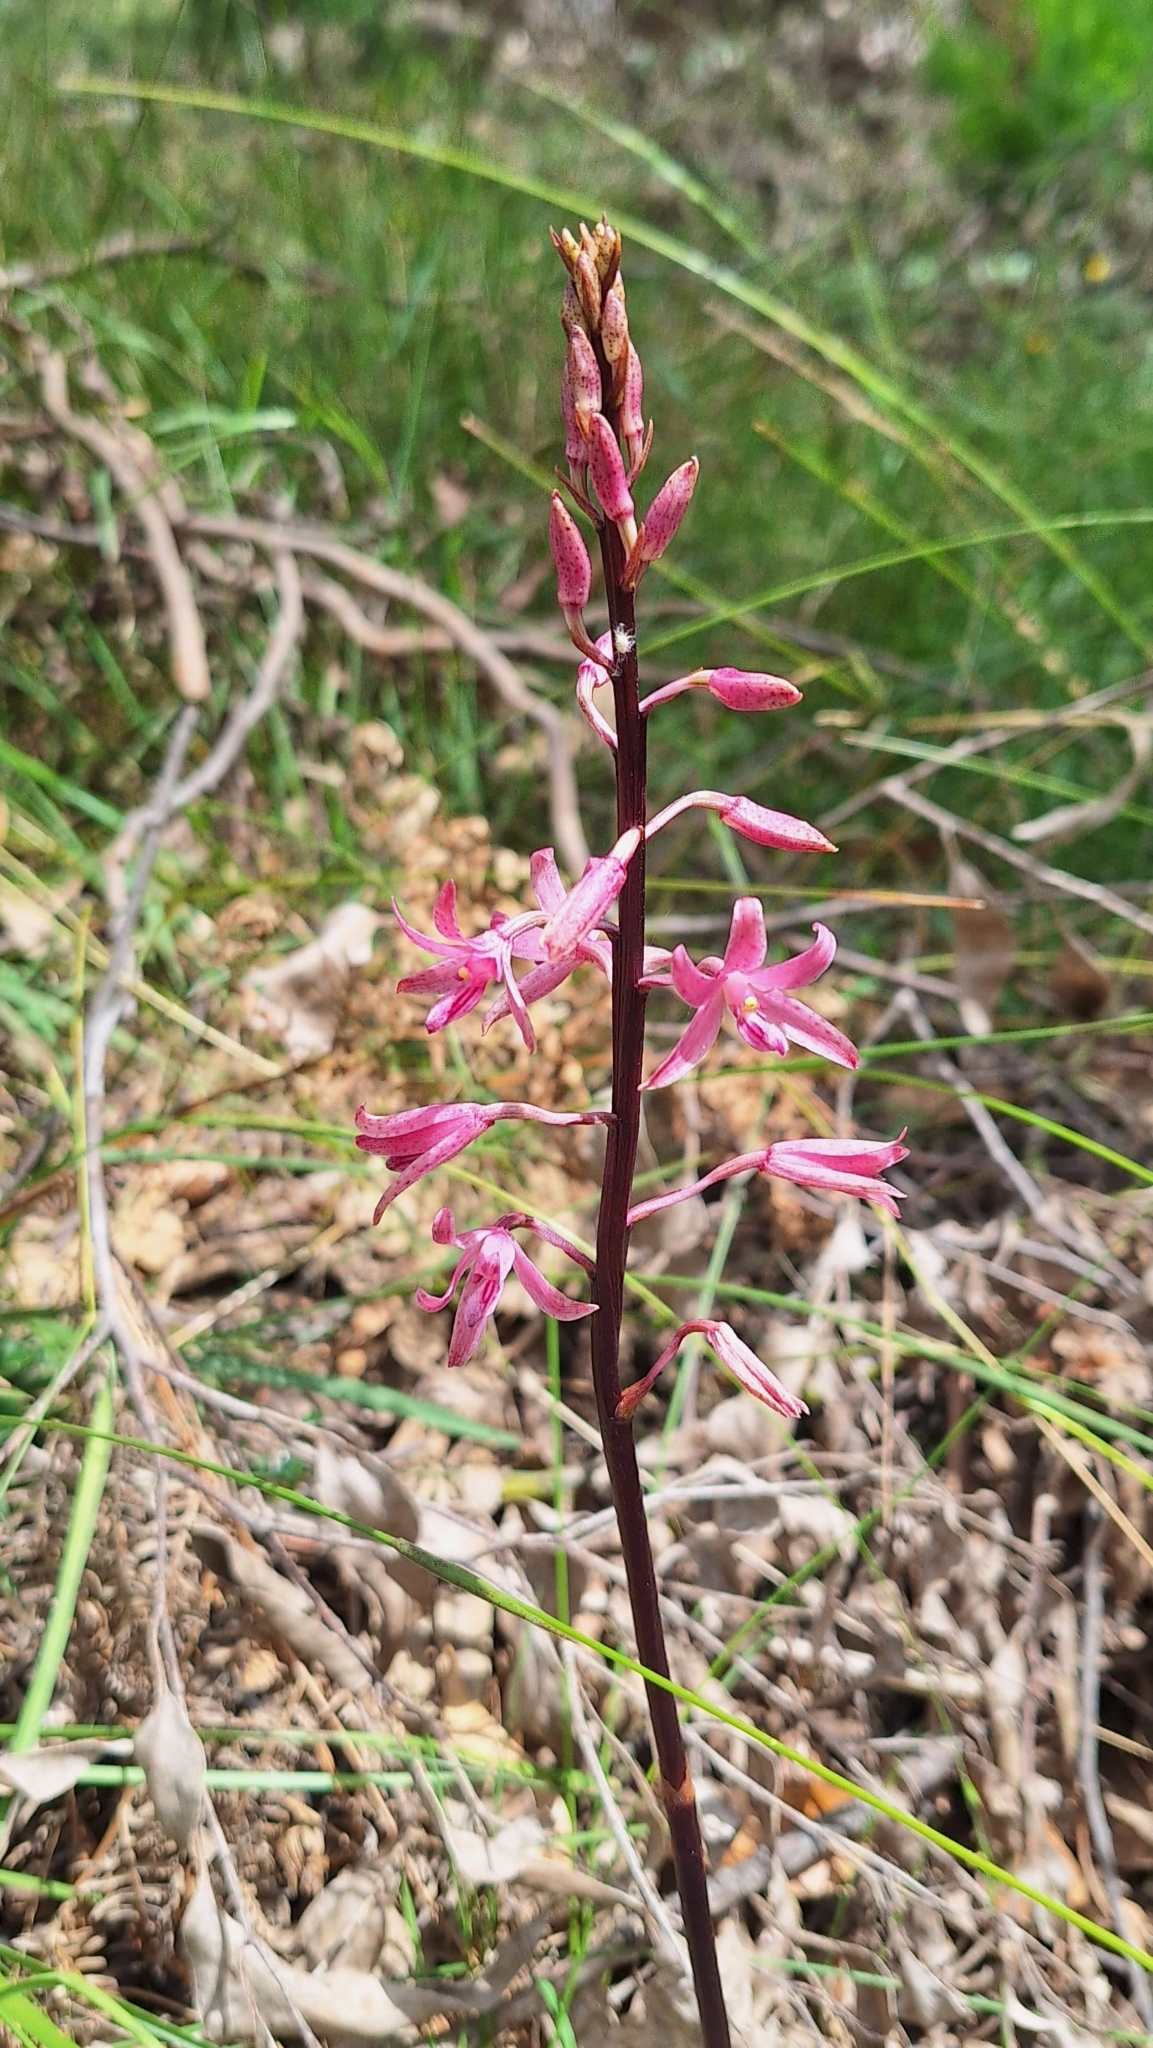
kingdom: Plantae
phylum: Tracheophyta
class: Liliopsida
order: Asparagales
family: Orchidaceae
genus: Dipodium
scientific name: Dipodium roseum
